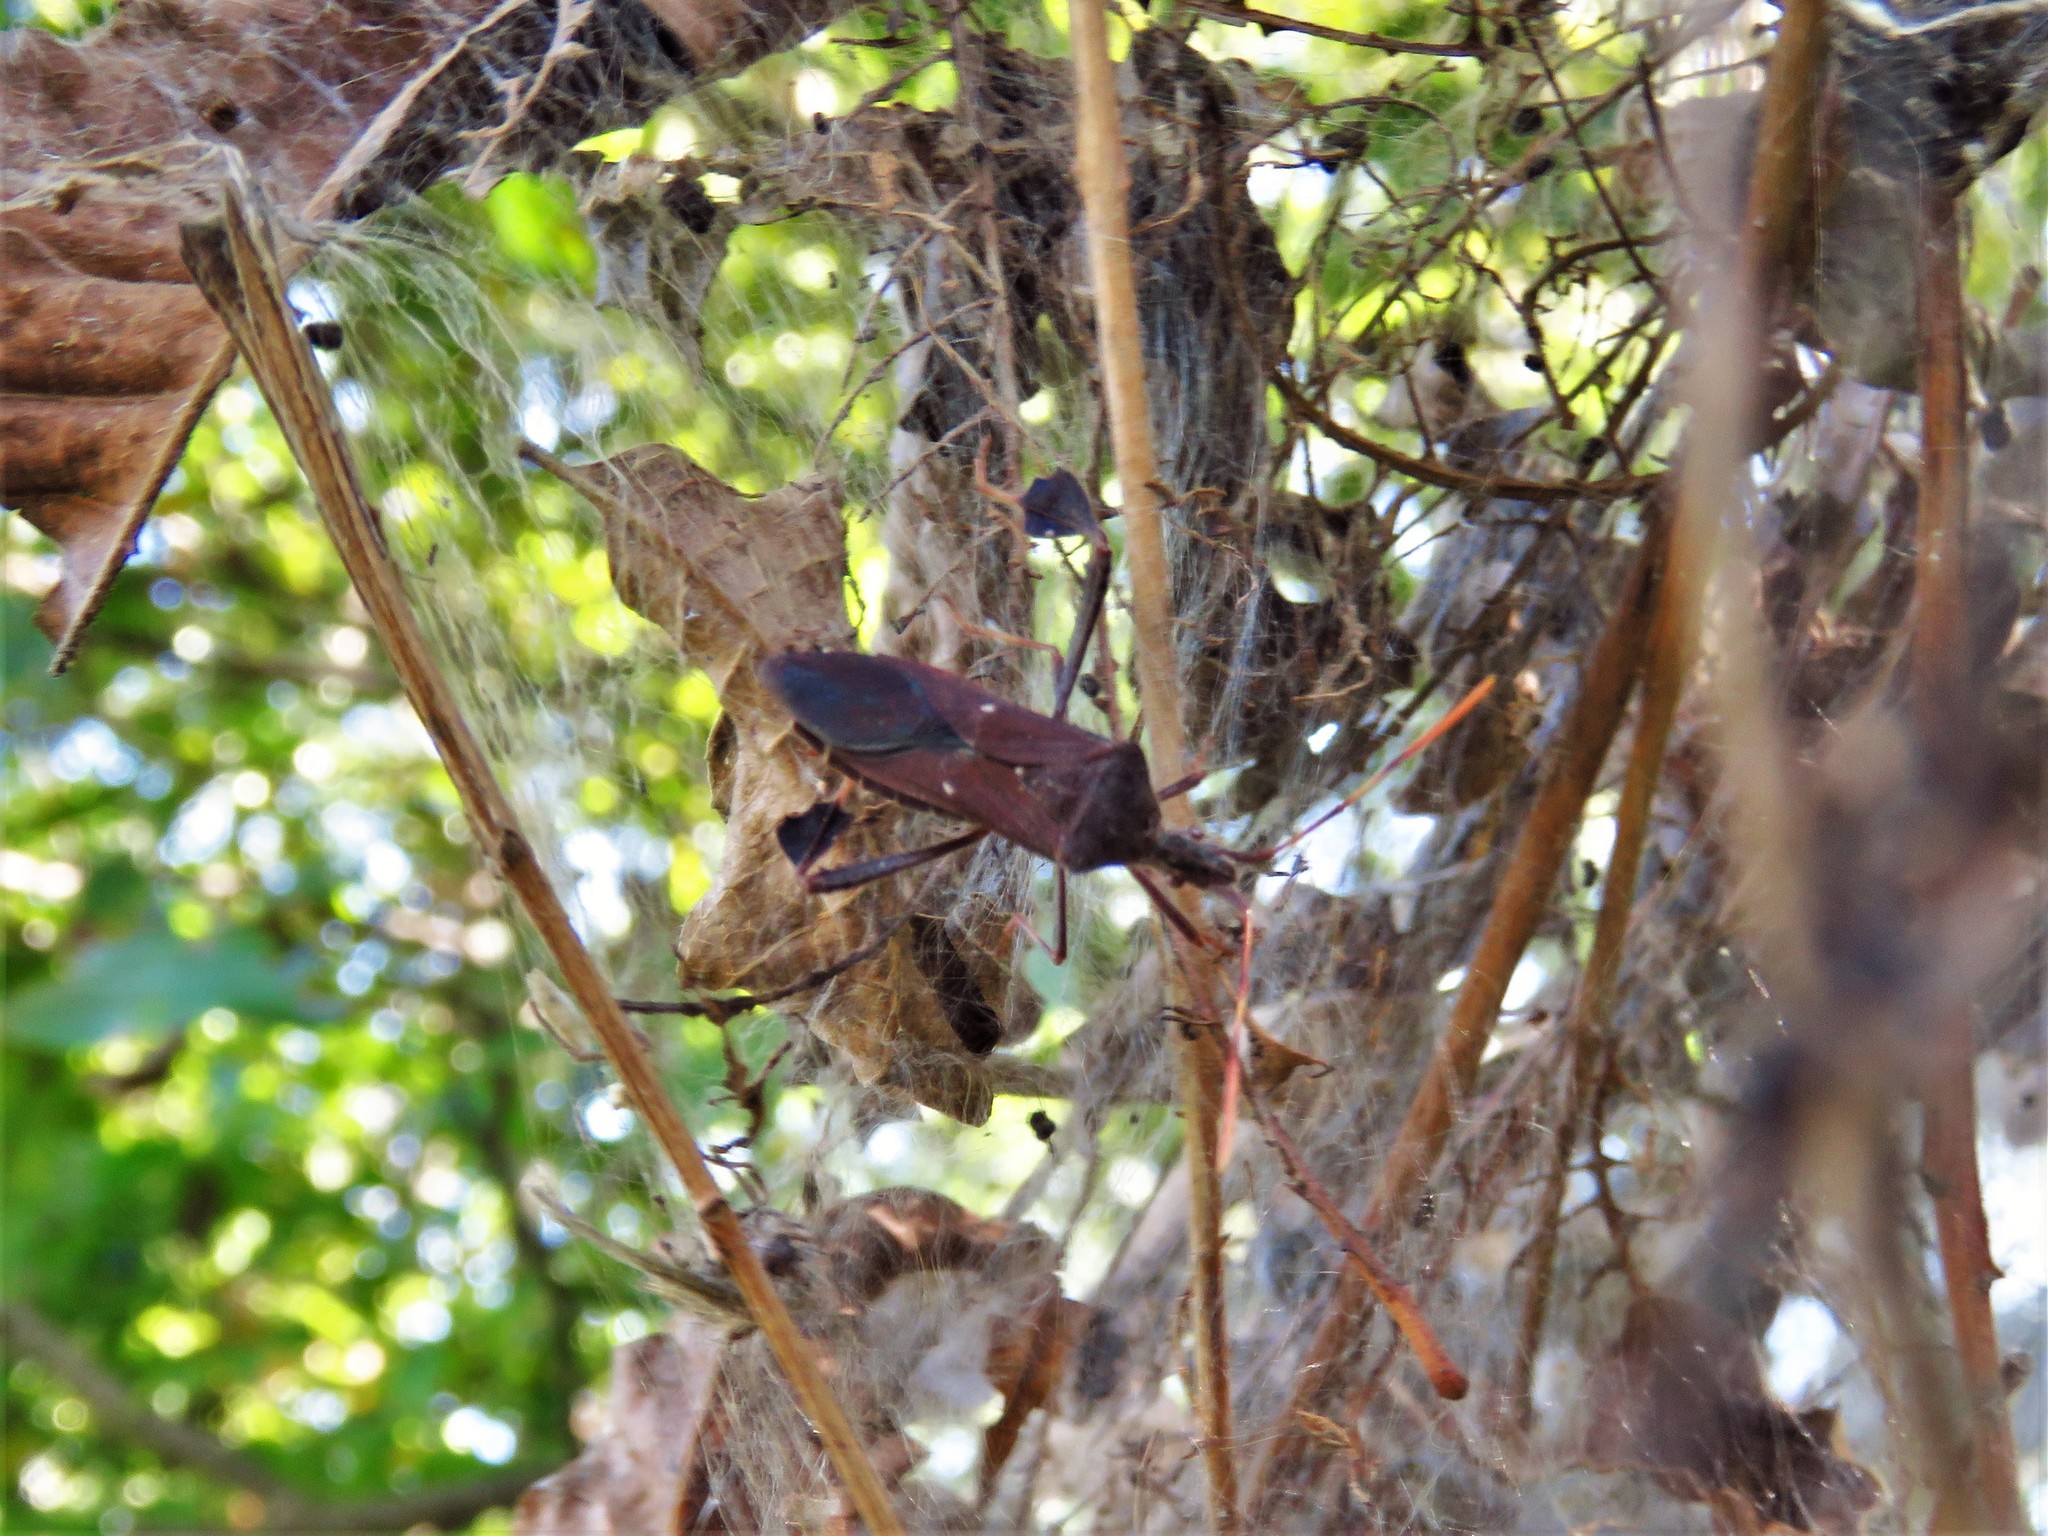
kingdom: Animalia
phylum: Arthropoda
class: Insecta
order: Hemiptera
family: Coreidae
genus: Leptoglossus
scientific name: Leptoglossus oppositus
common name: Northern leaf-footed bug
